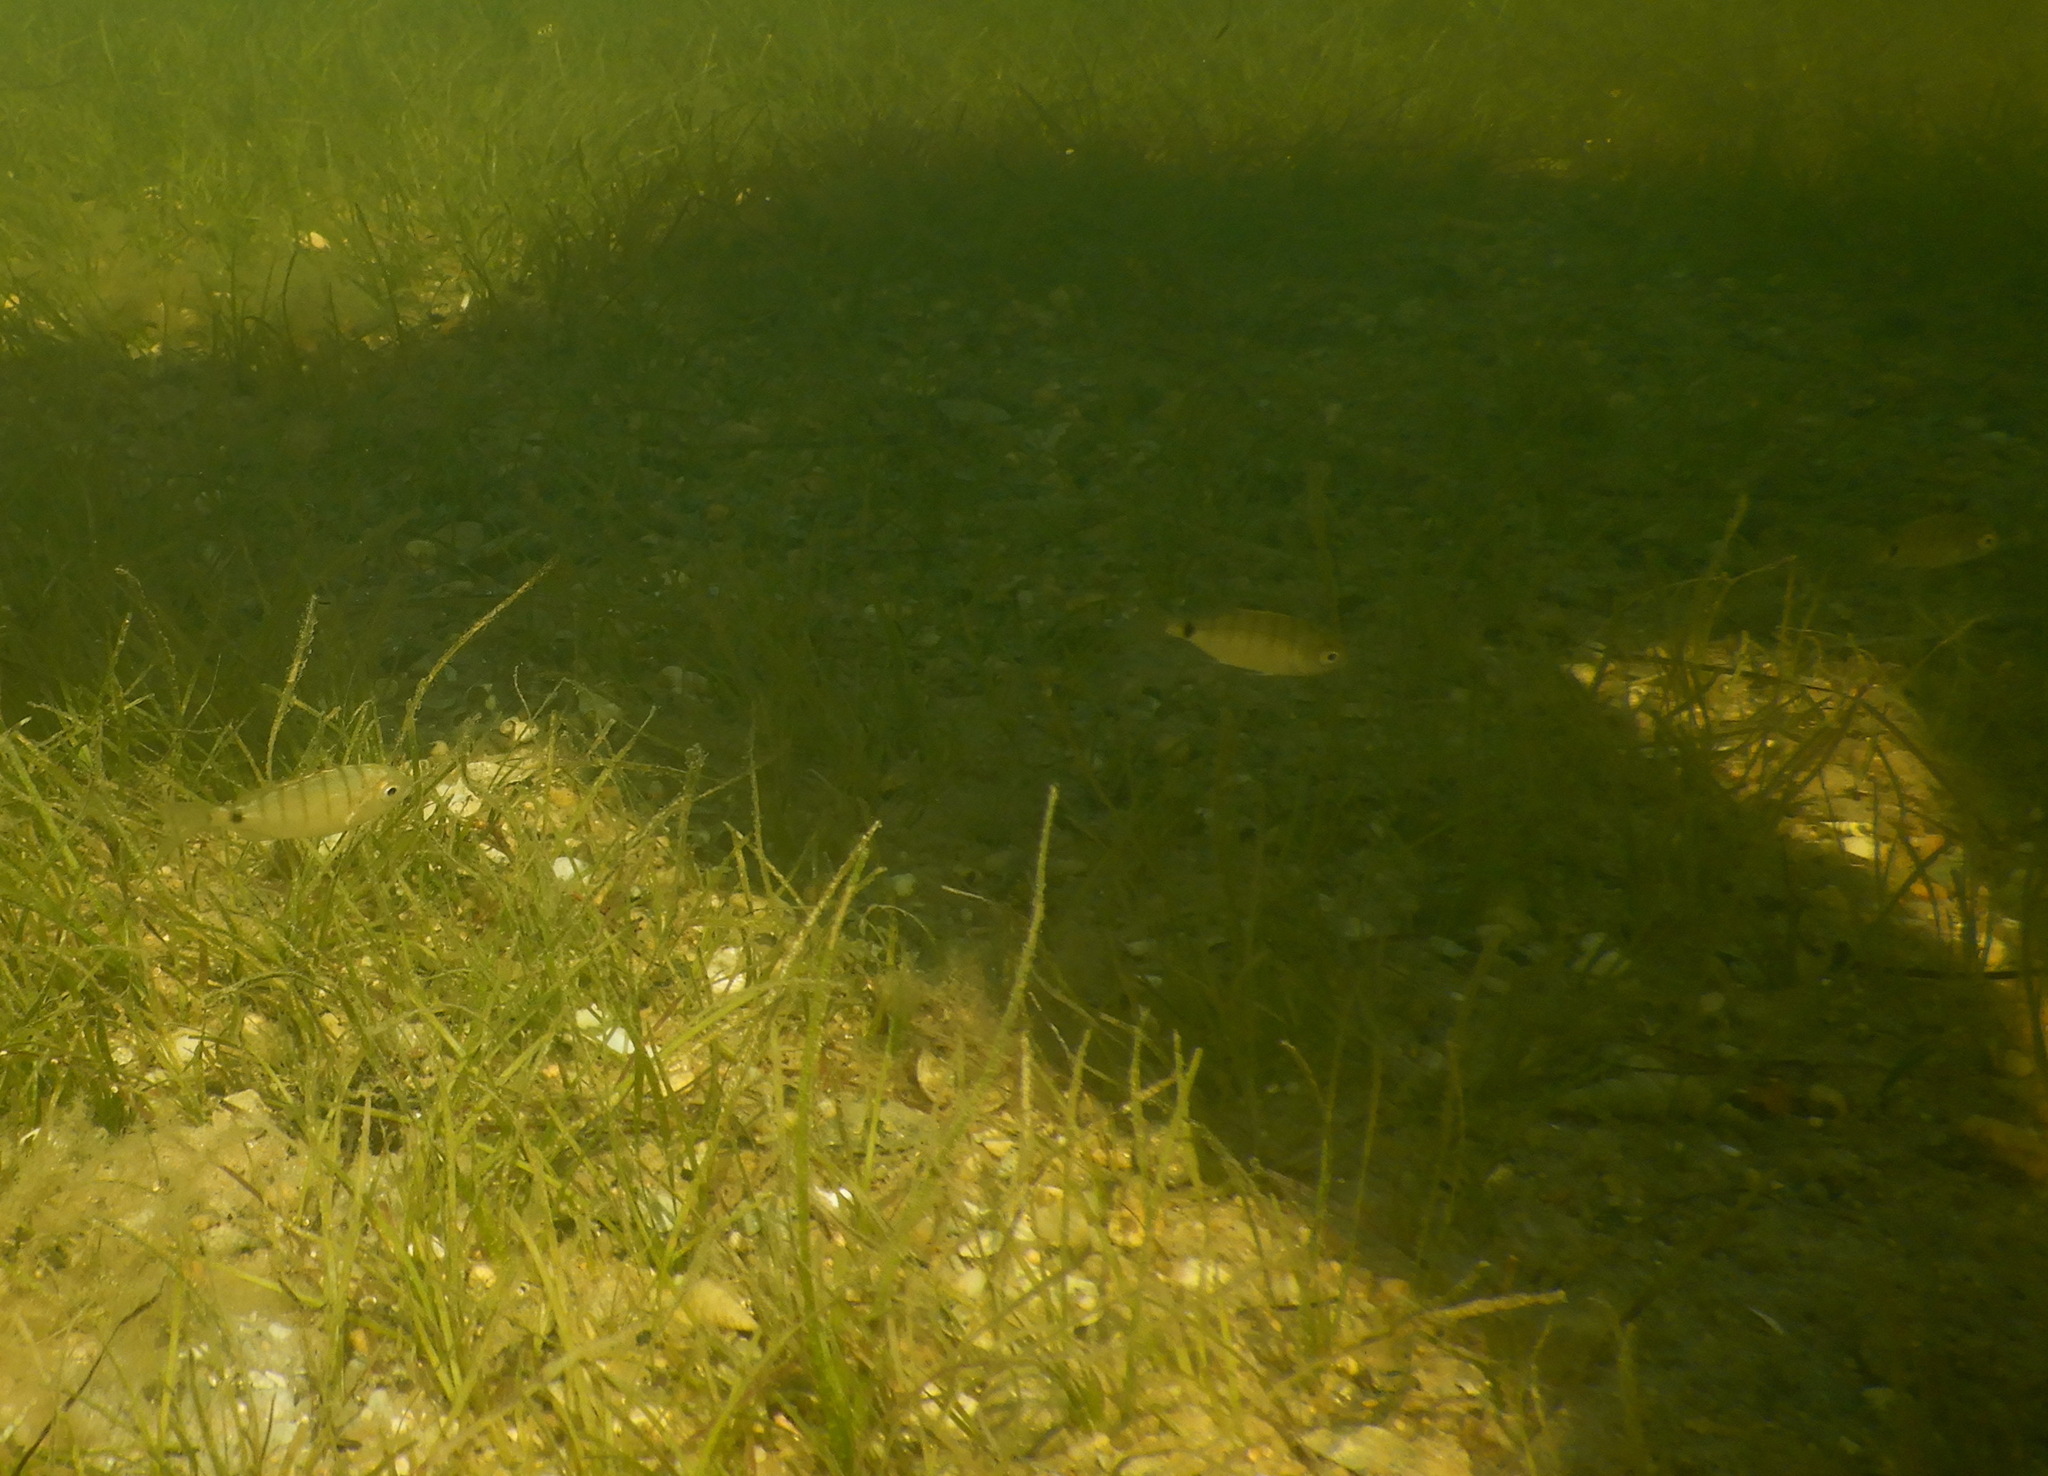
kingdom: Animalia
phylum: Chordata
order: Perciformes
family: Sparidae
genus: Diplodus
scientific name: Diplodus cadenati
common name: Moroccan white seabream
